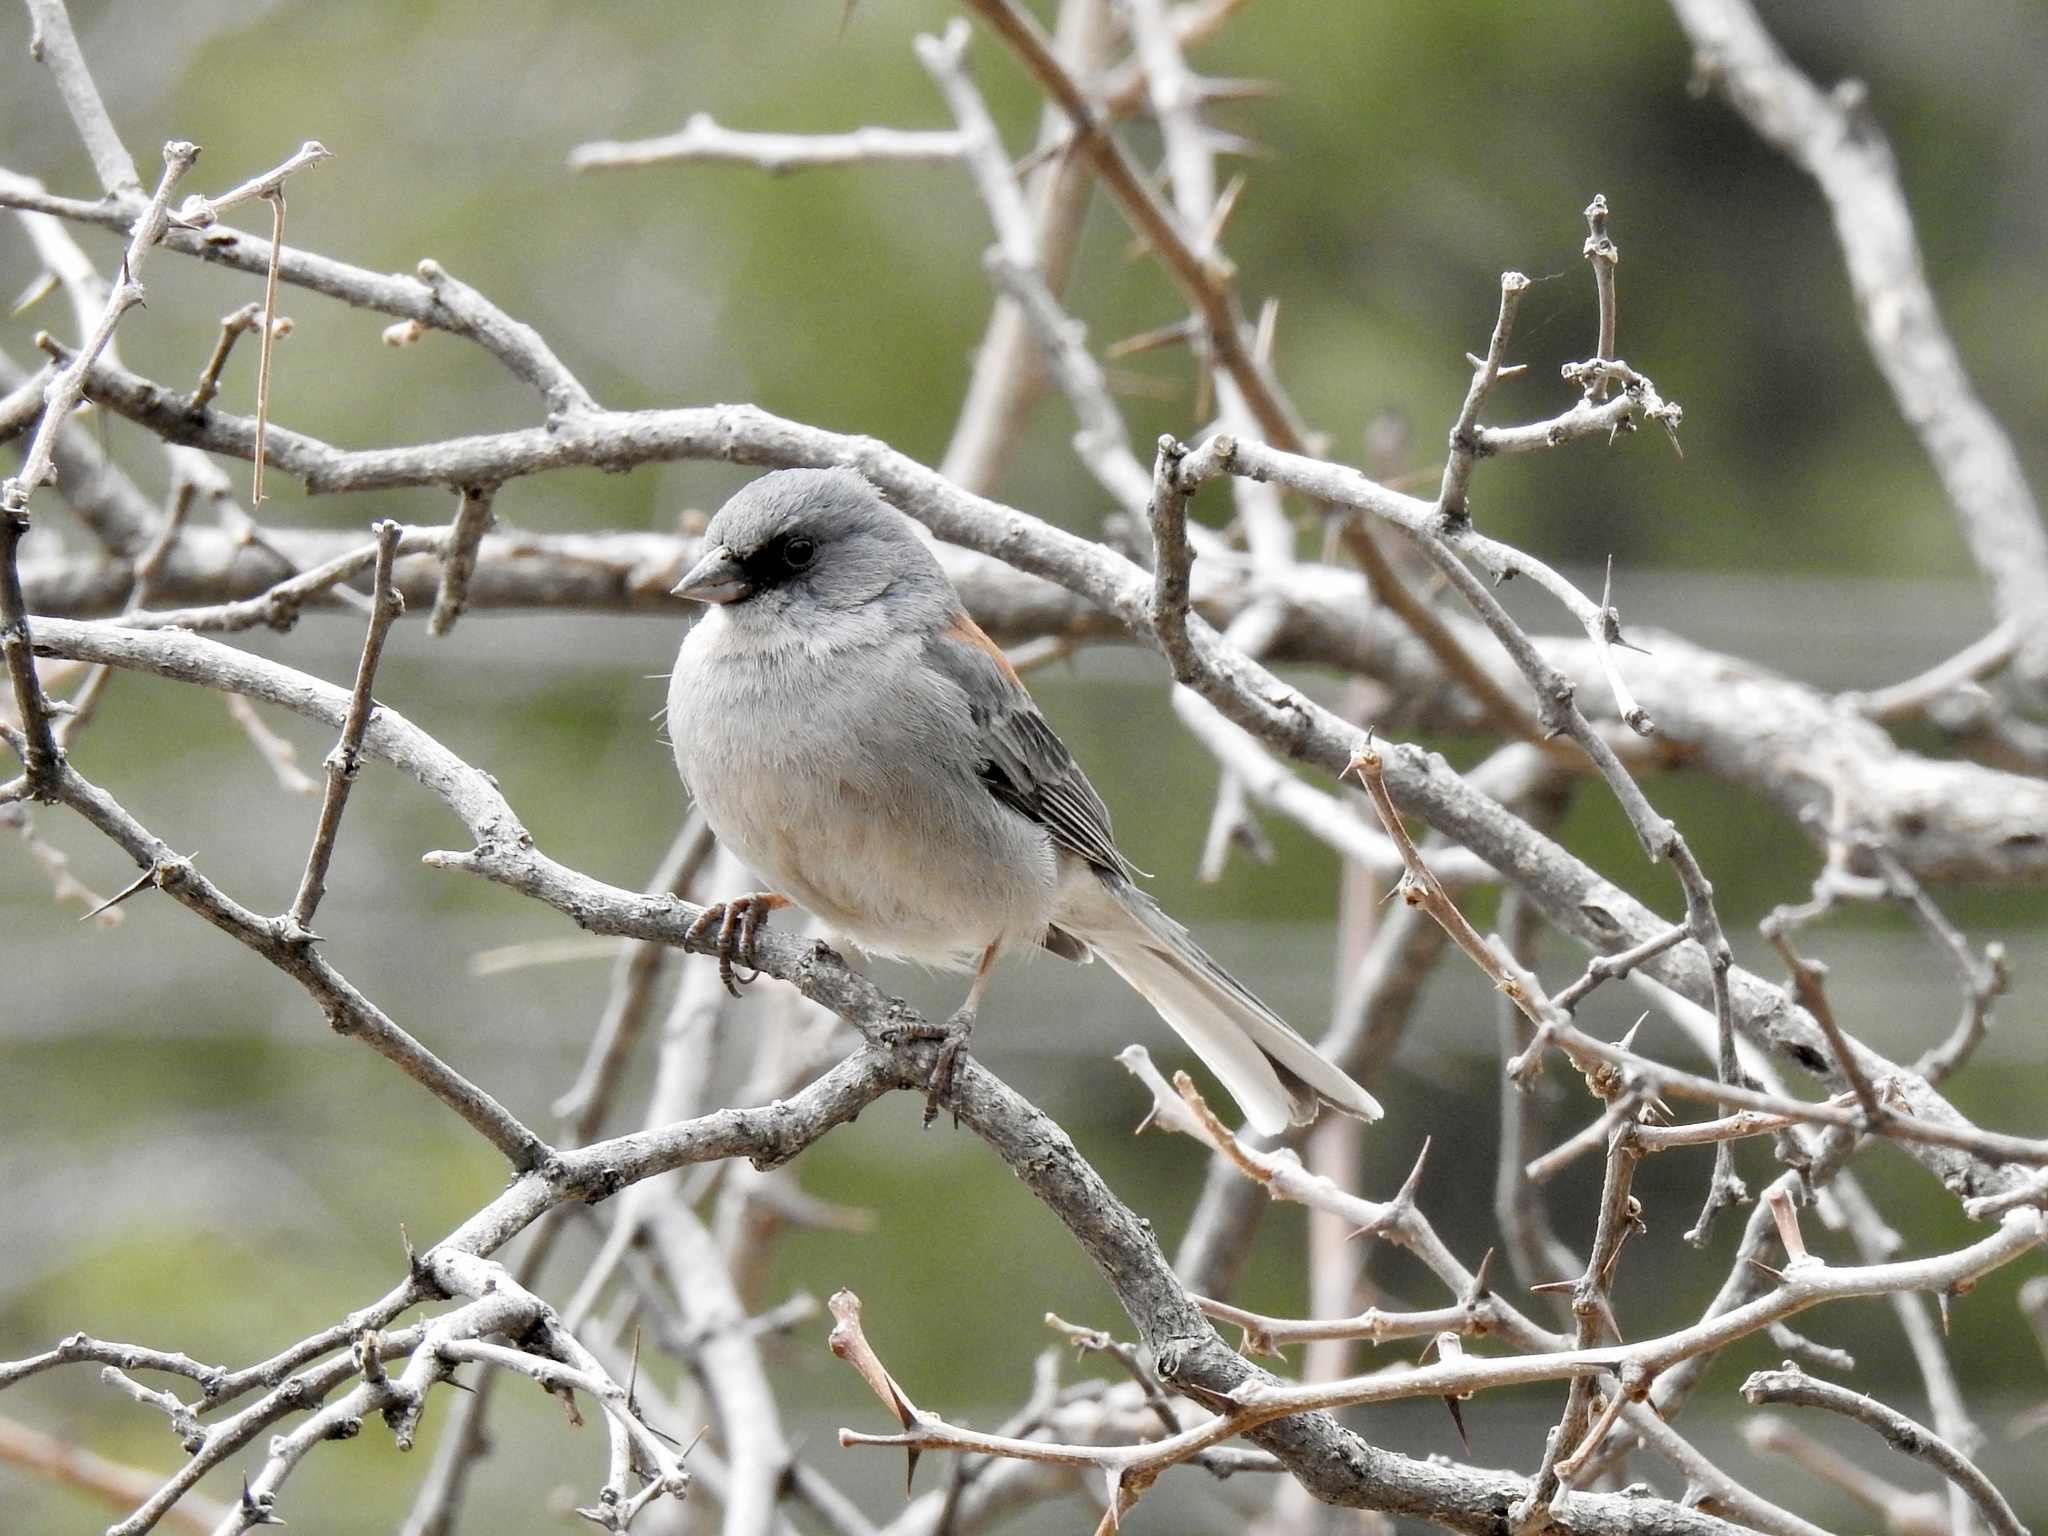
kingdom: Animalia
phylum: Chordata
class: Aves
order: Passeriformes
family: Passerellidae
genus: Junco
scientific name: Junco hyemalis
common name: Dark-eyed junco
